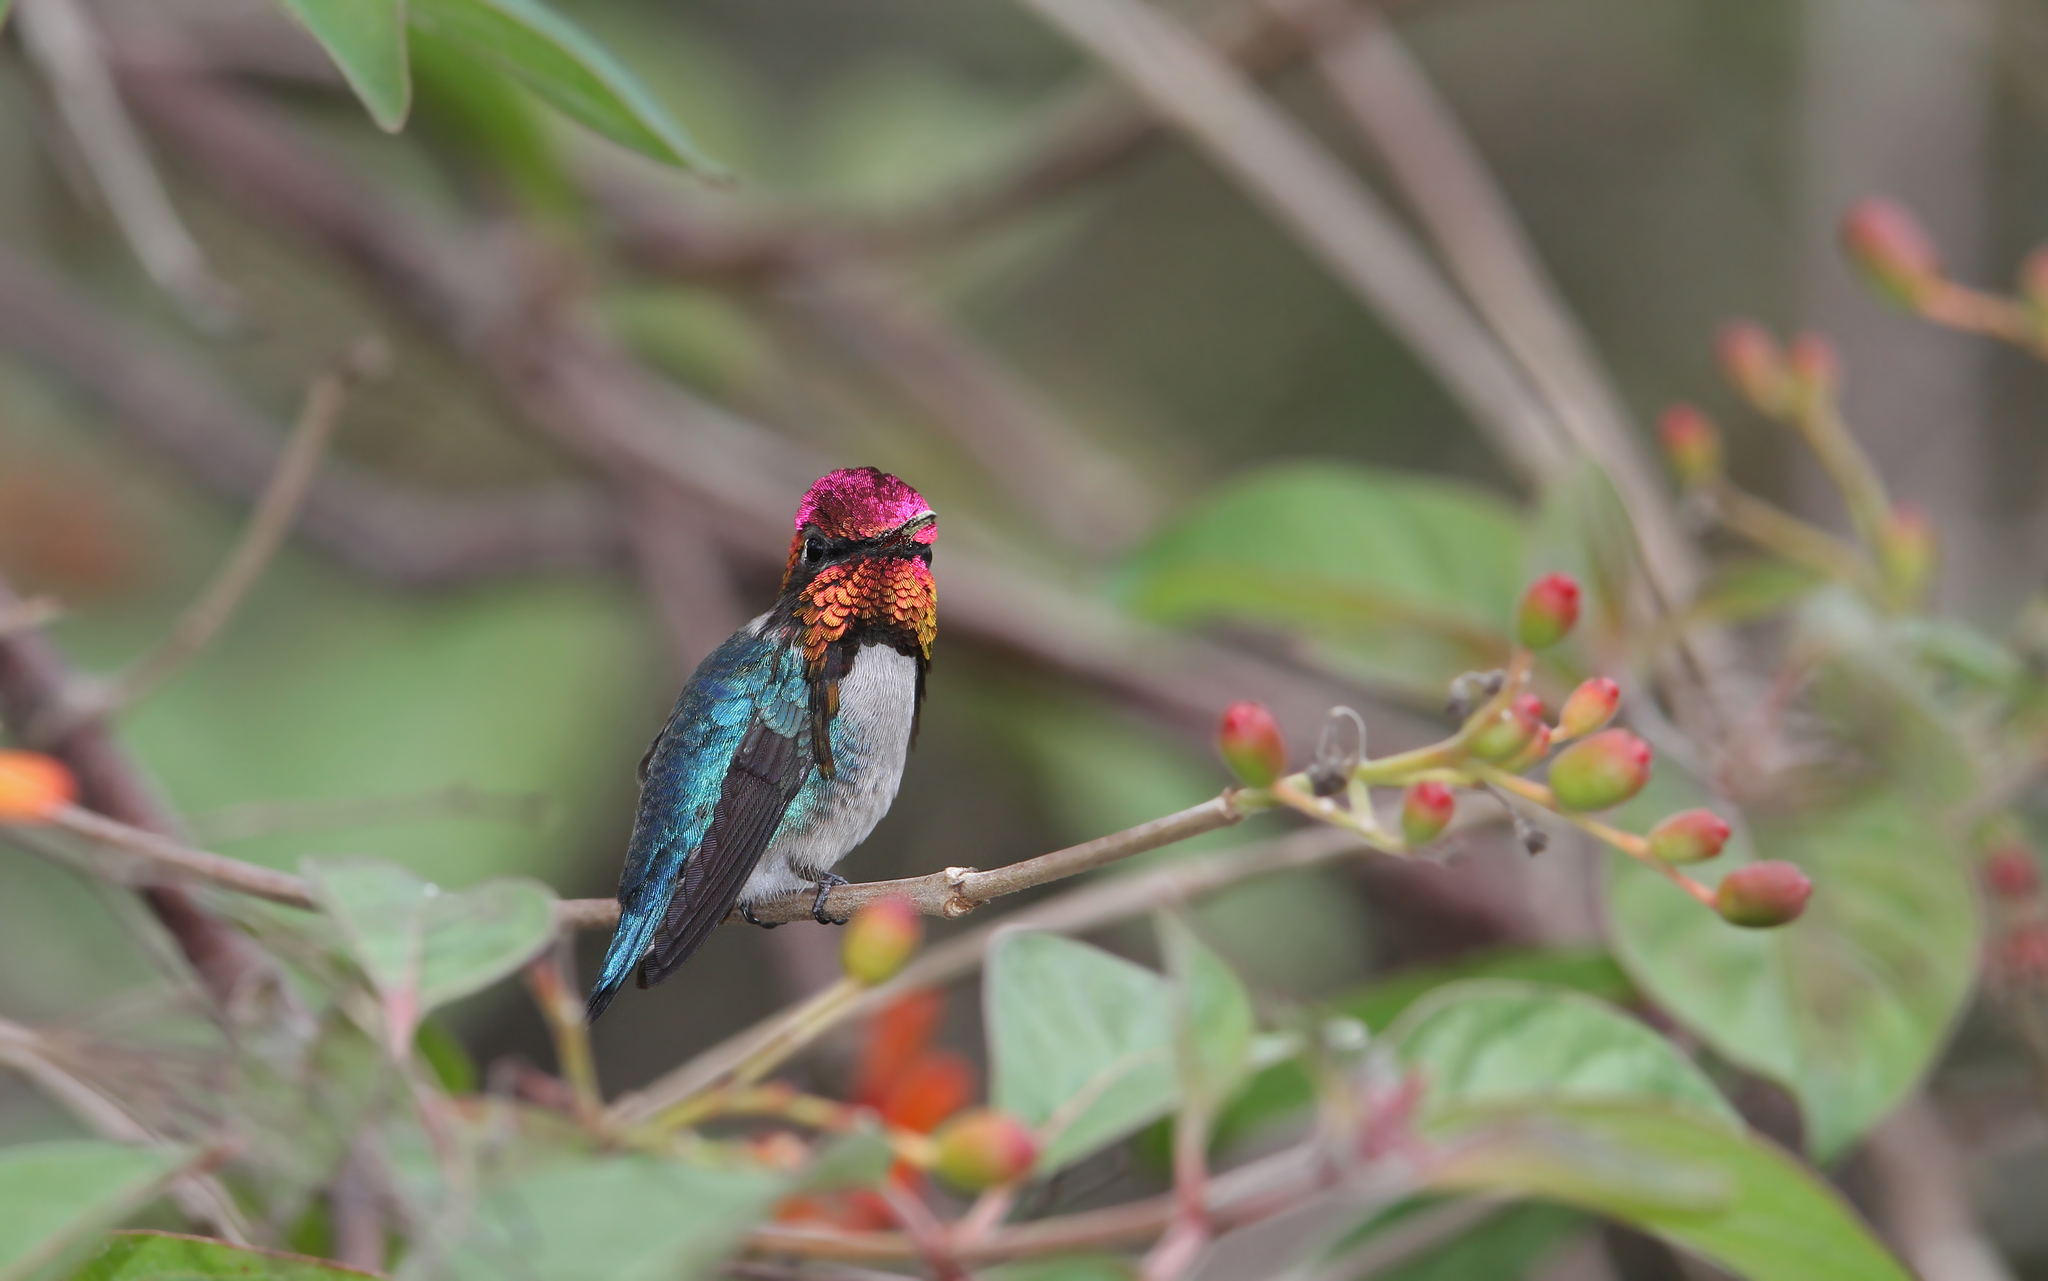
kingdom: Animalia
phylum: Chordata
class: Aves
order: Apodiformes
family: Trochilidae
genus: Mellisuga
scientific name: Mellisuga helenae
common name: Bee hummingbird
